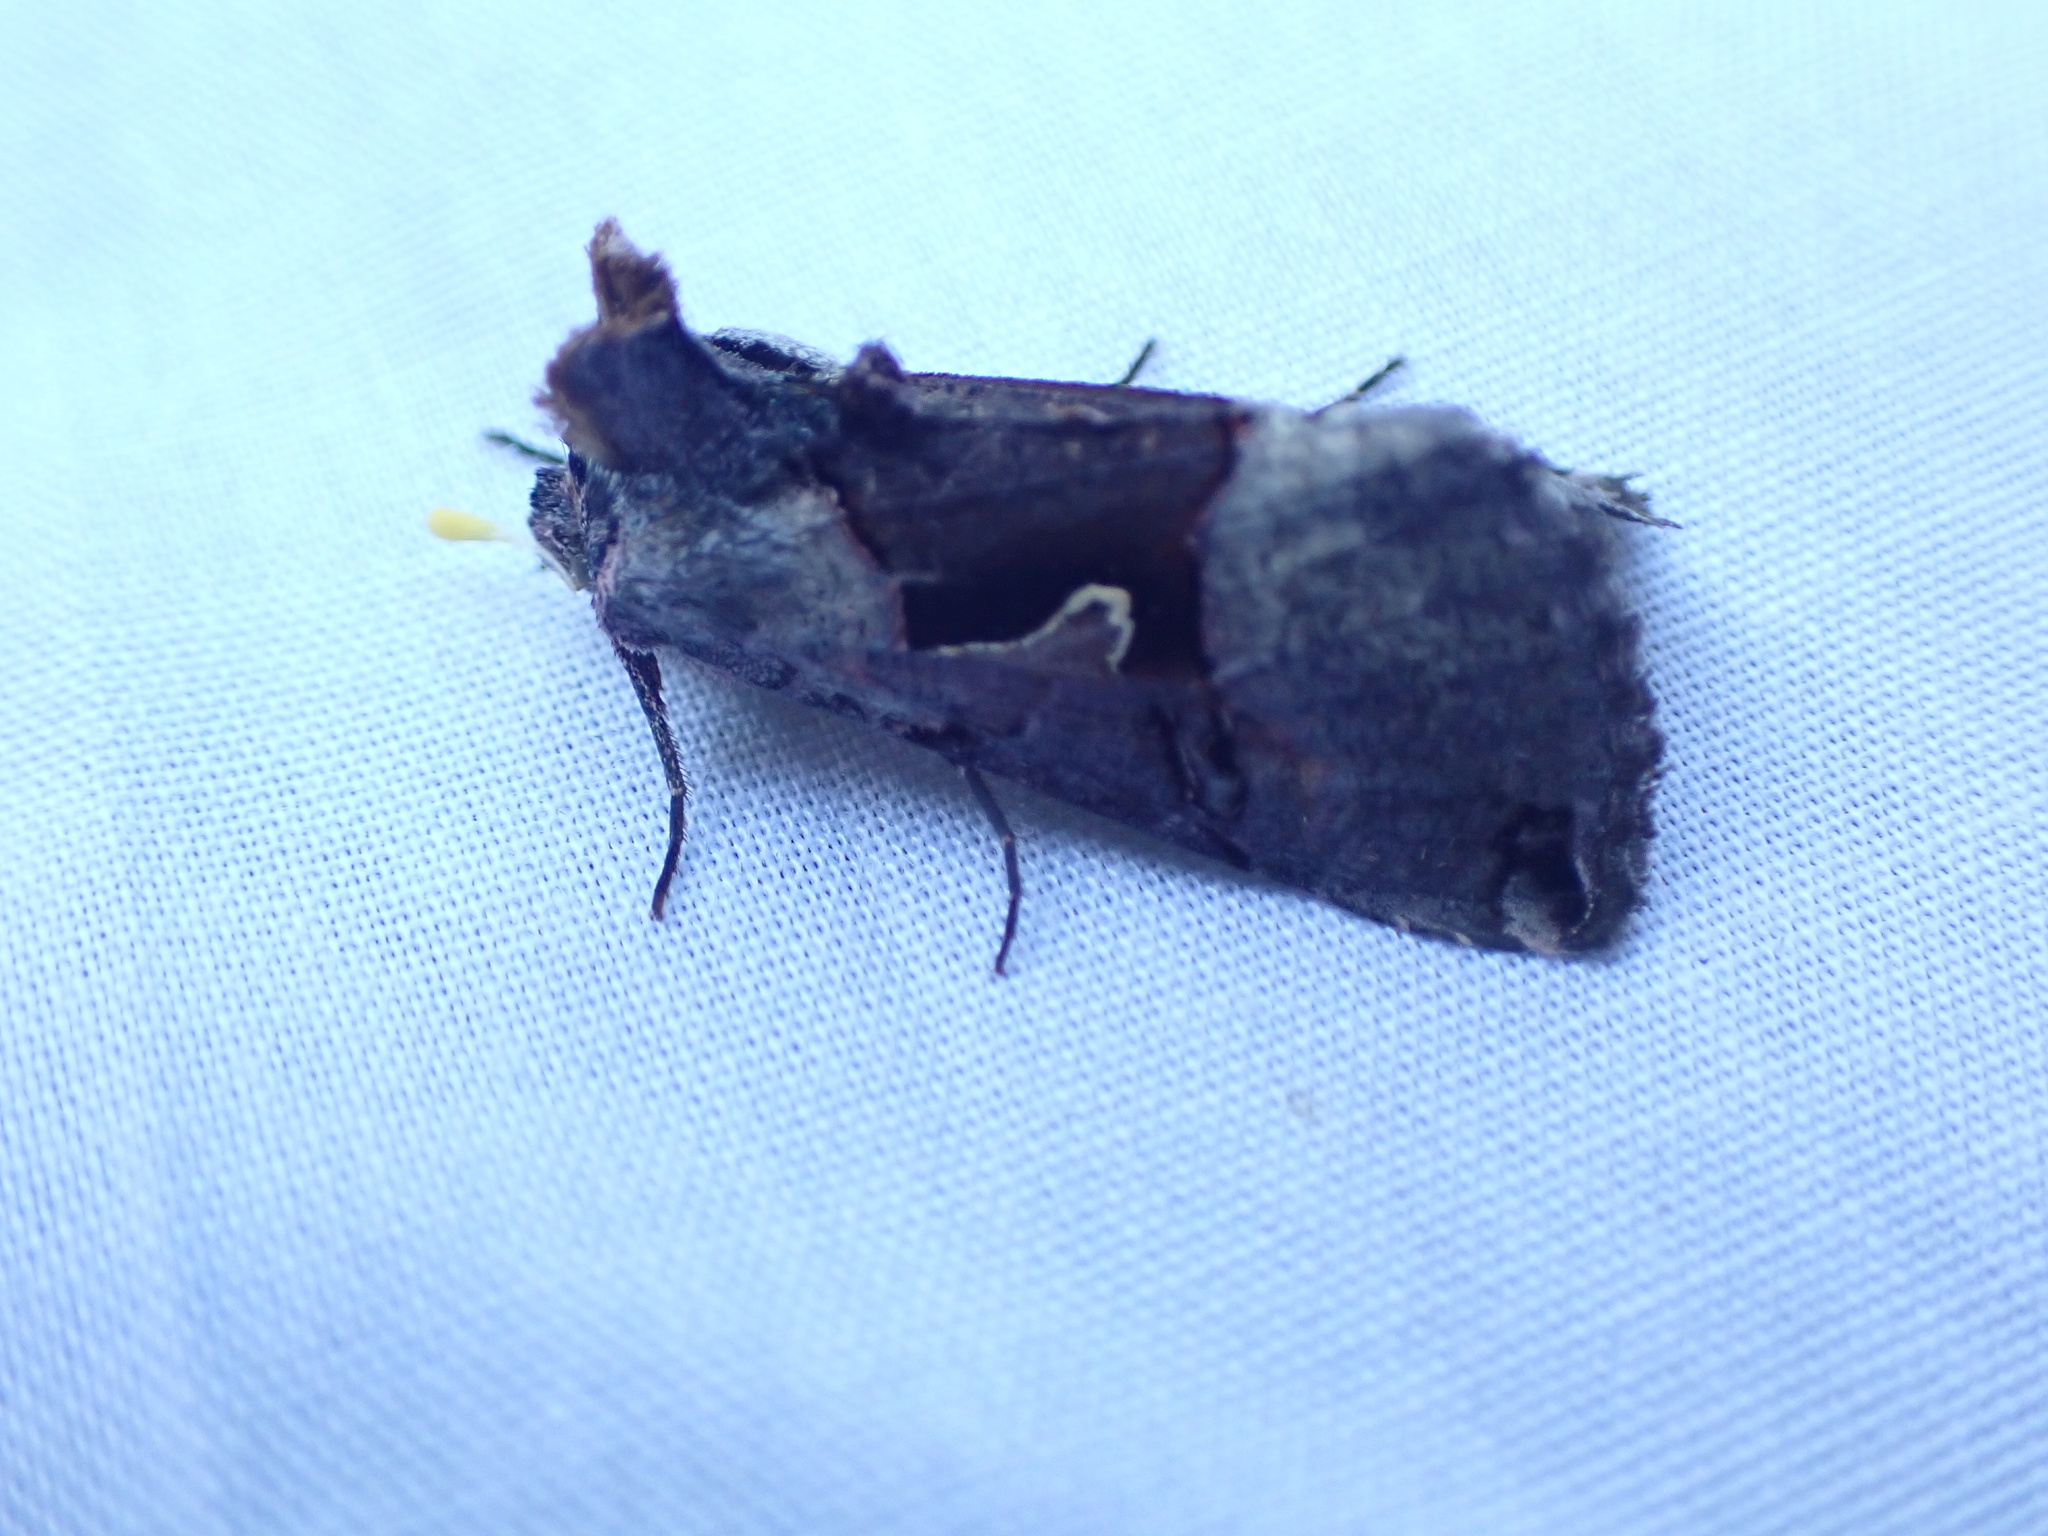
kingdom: Animalia
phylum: Arthropoda
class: Insecta
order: Lepidoptera
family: Noctuidae
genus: Autographa
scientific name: Autographa ampla
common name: Large looper moth
